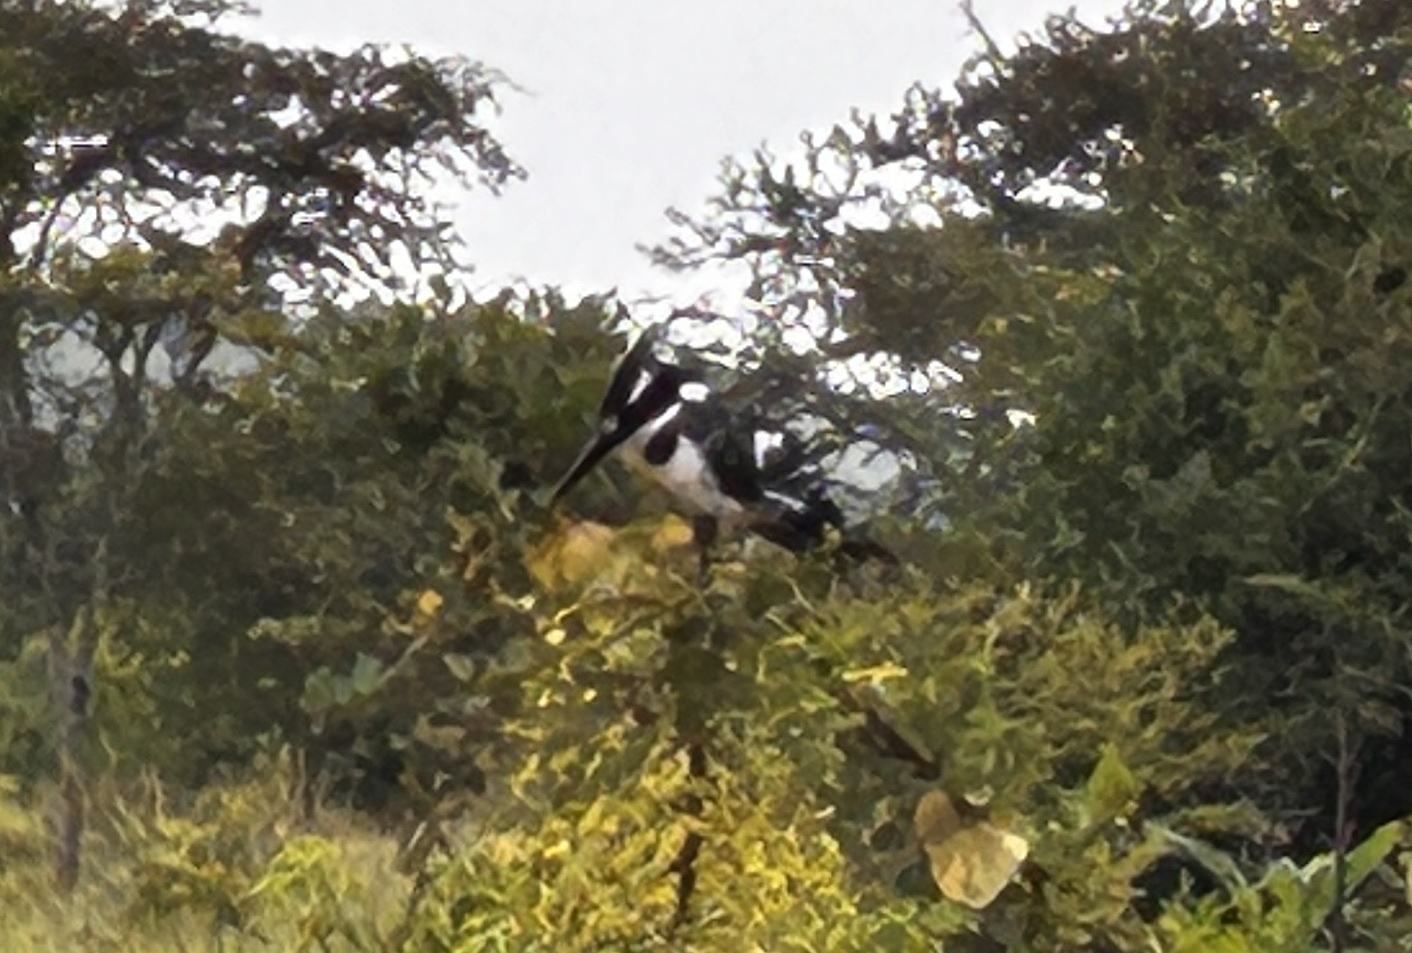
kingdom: Animalia
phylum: Chordata
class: Aves
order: Coraciiformes
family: Alcedinidae
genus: Ceryle
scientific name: Ceryle rudis
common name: Pied kingfisher
